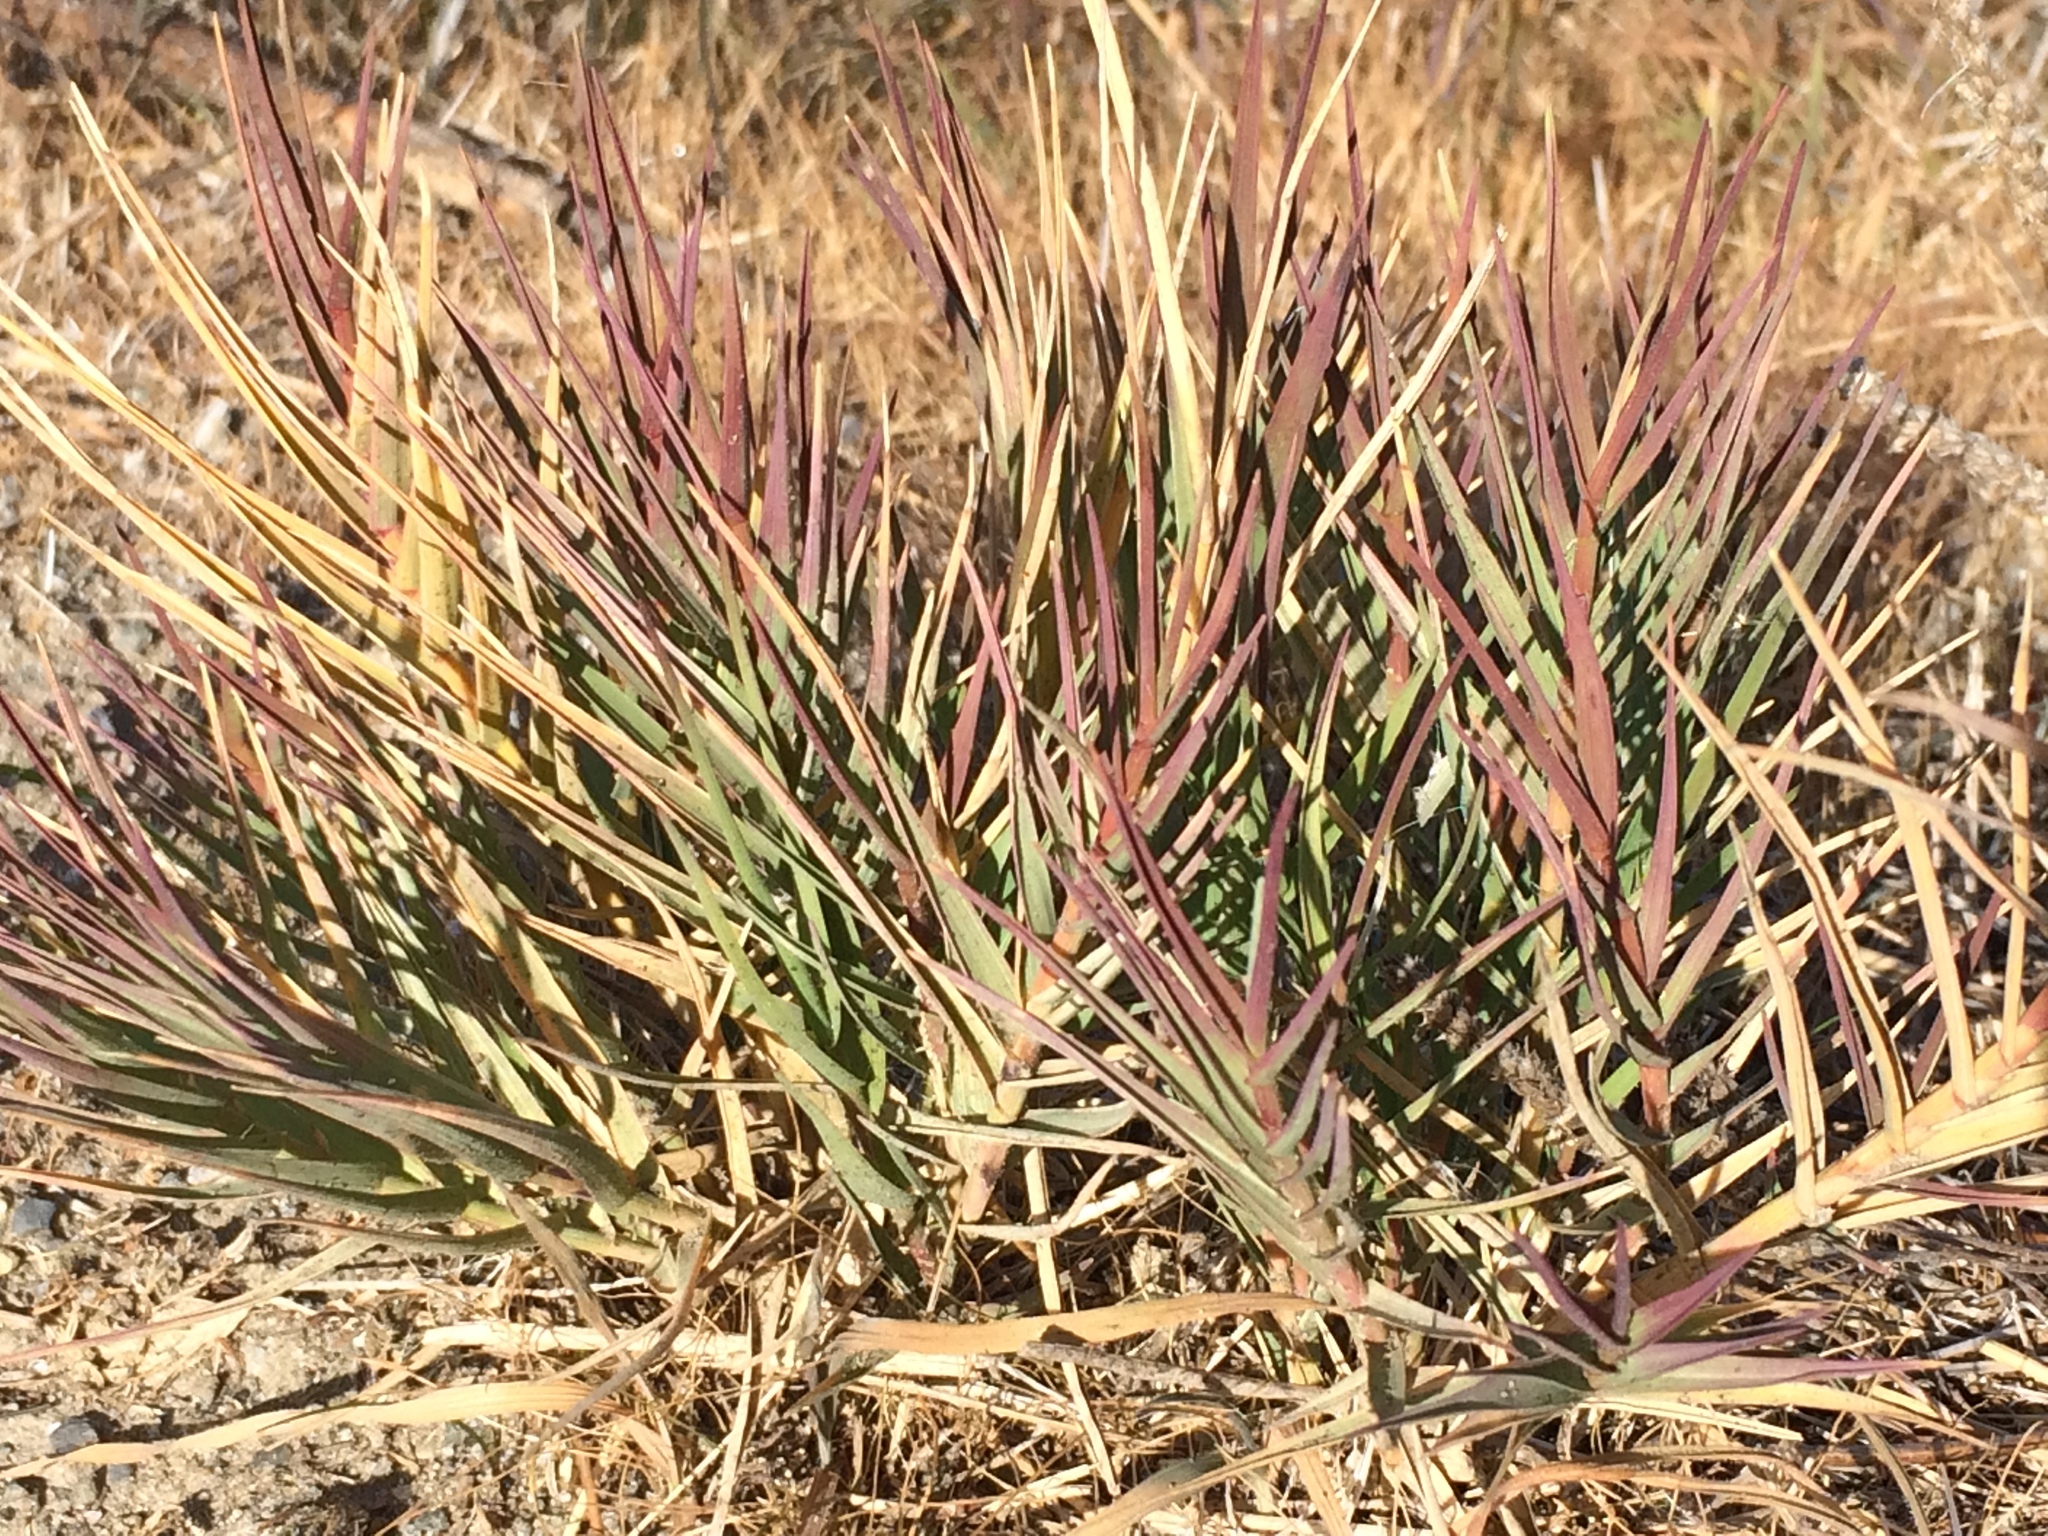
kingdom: Plantae
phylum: Tracheophyta
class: Liliopsida
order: Poales
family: Poaceae
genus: Distichlis
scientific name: Distichlis spicata
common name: Saltgrass
